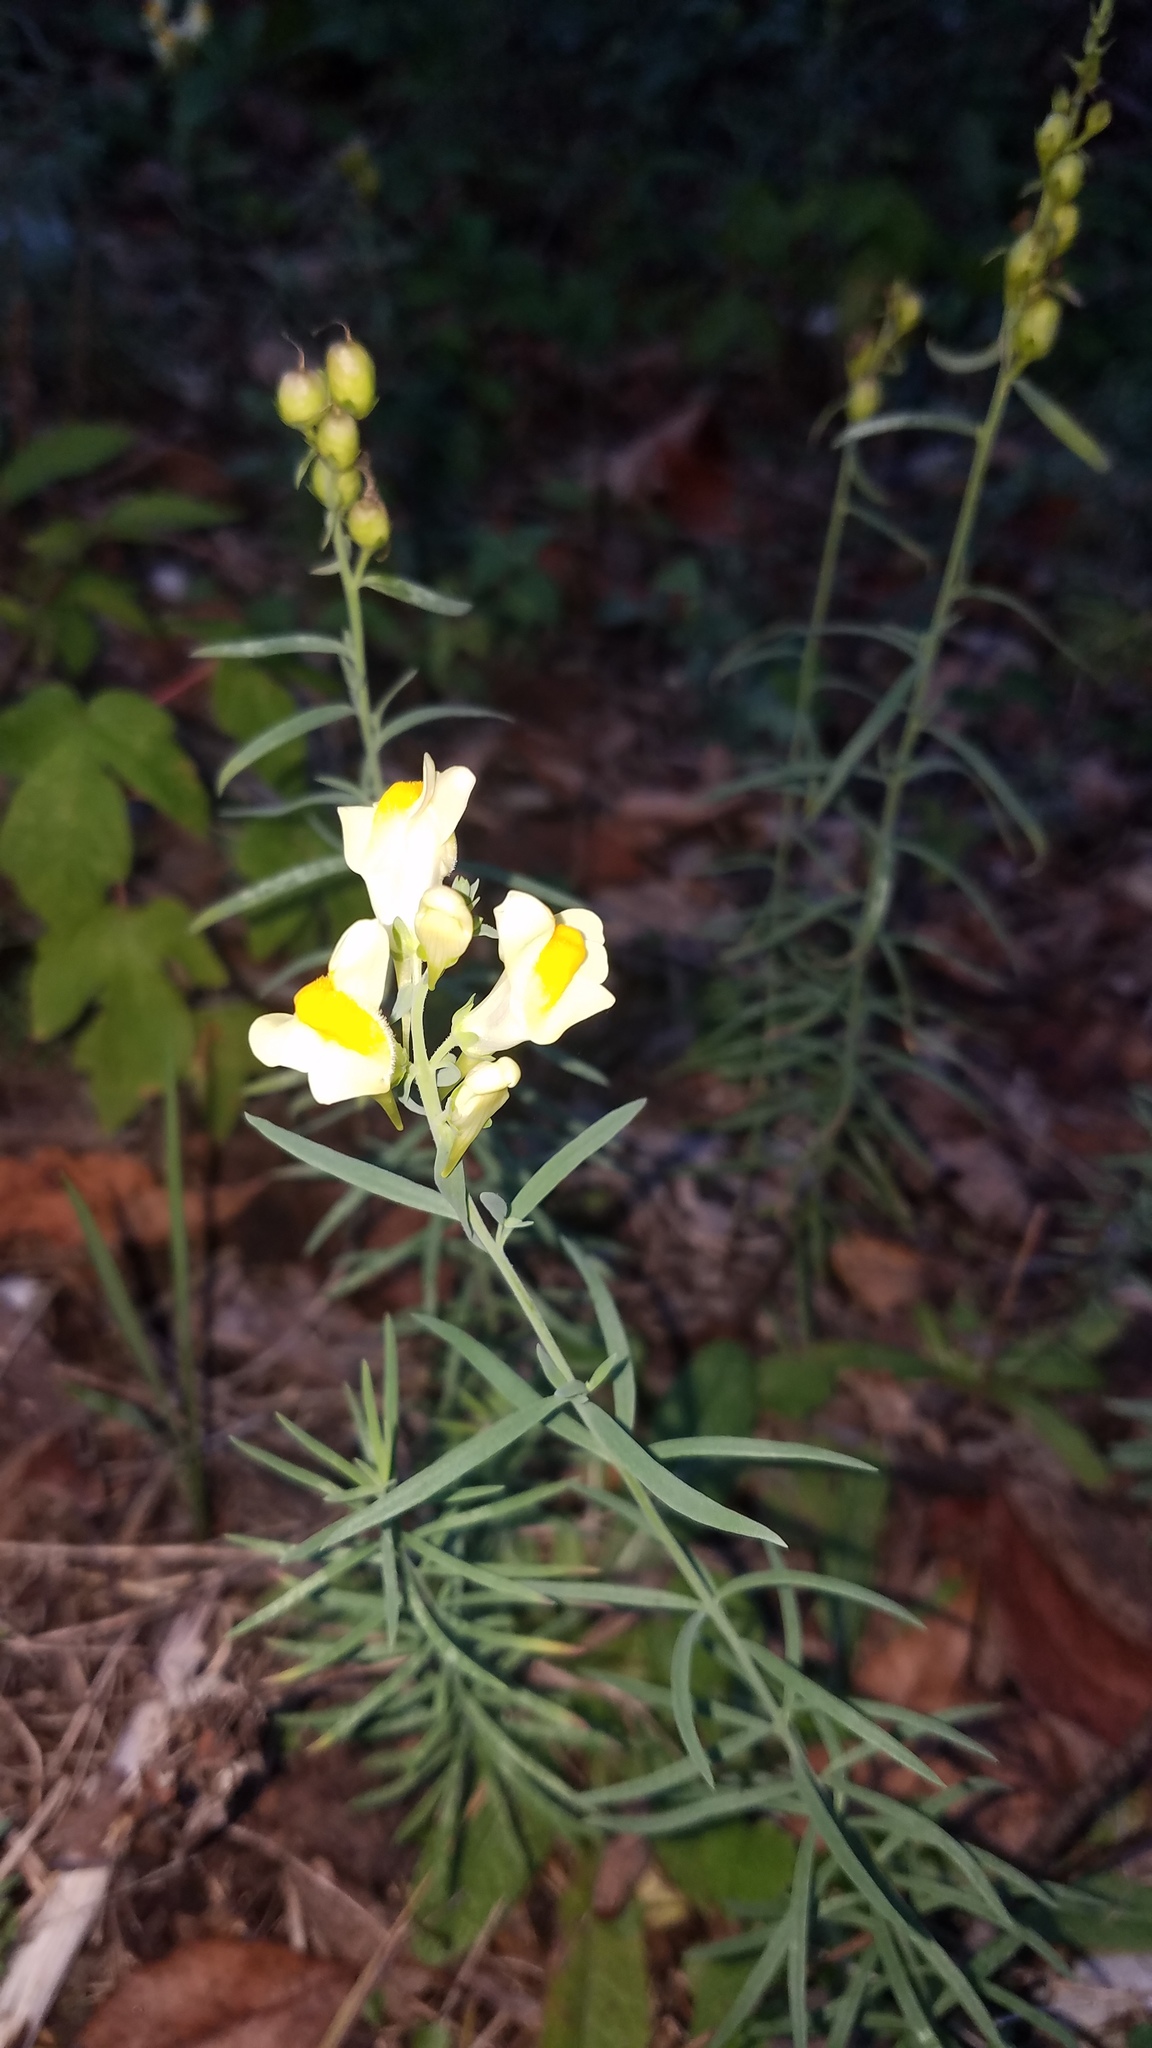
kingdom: Plantae
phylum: Tracheophyta
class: Magnoliopsida
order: Lamiales
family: Plantaginaceae
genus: Linaria
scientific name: Linaria vulgaris
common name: Butter and eggs
